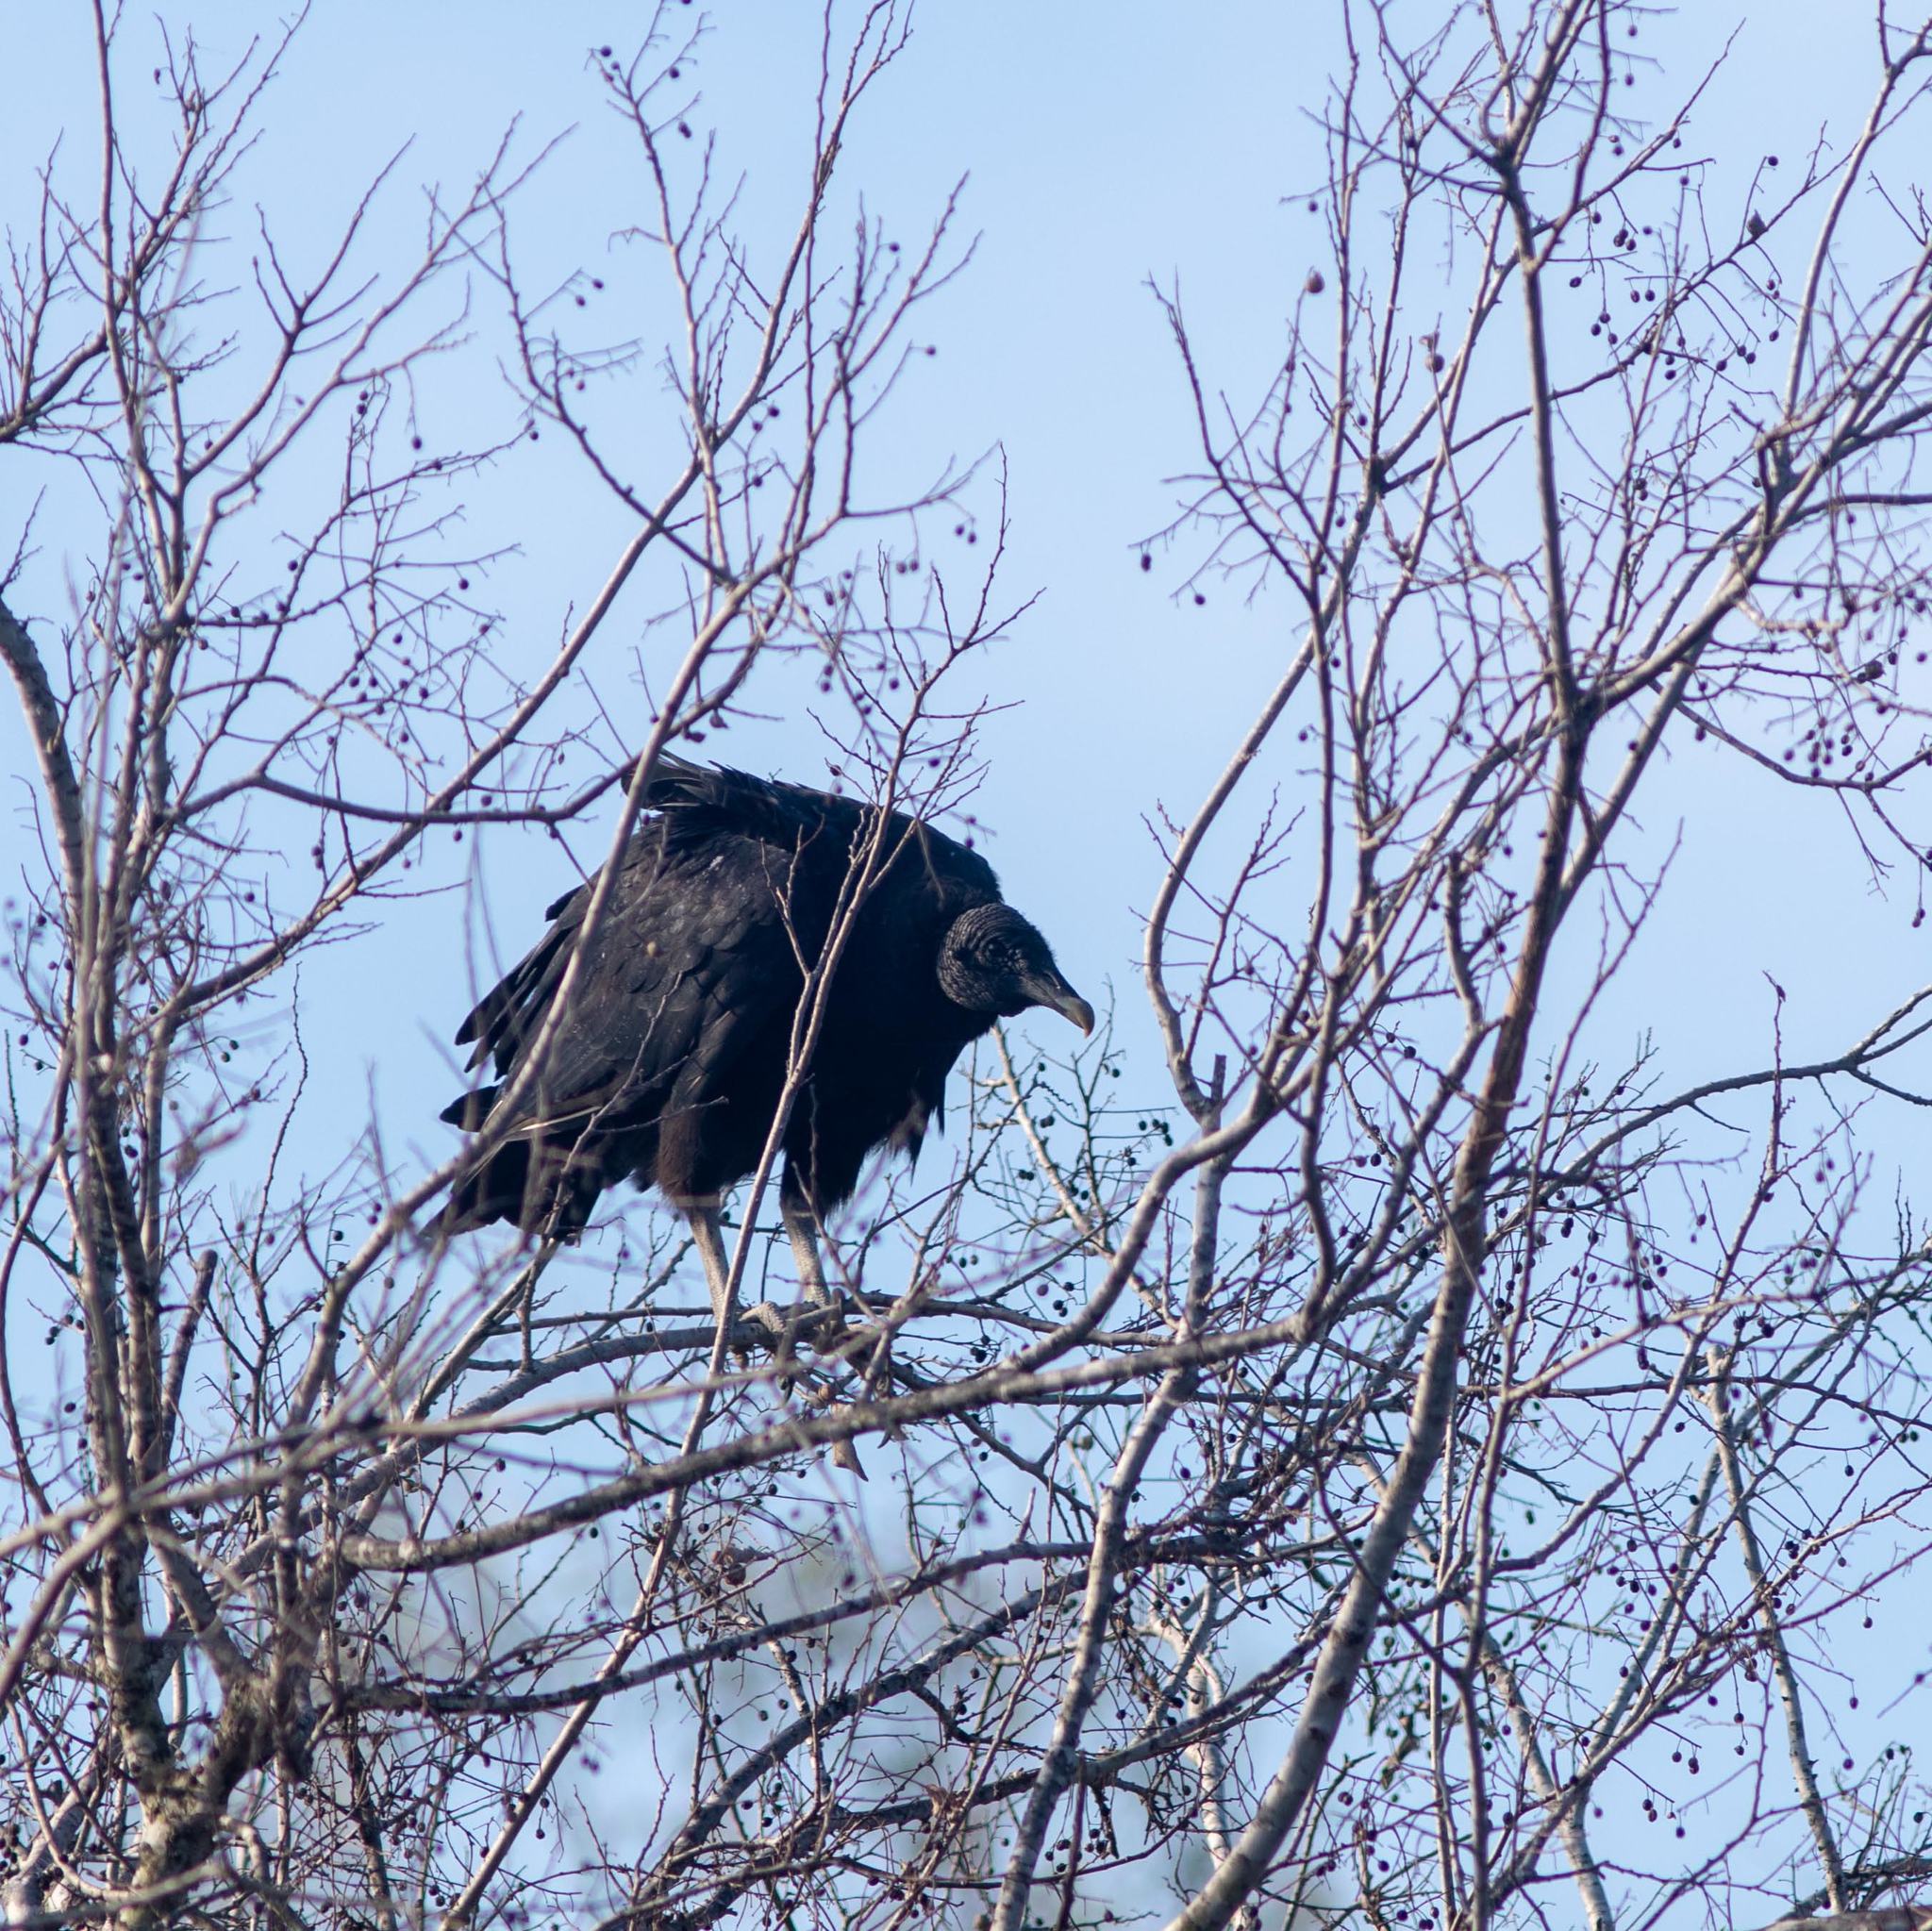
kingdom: Animalia
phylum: Chordata
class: Aves
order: Accipitriformes
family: Cathartidae
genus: Coragyps
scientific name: Coragyps atratus
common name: Black vulture
